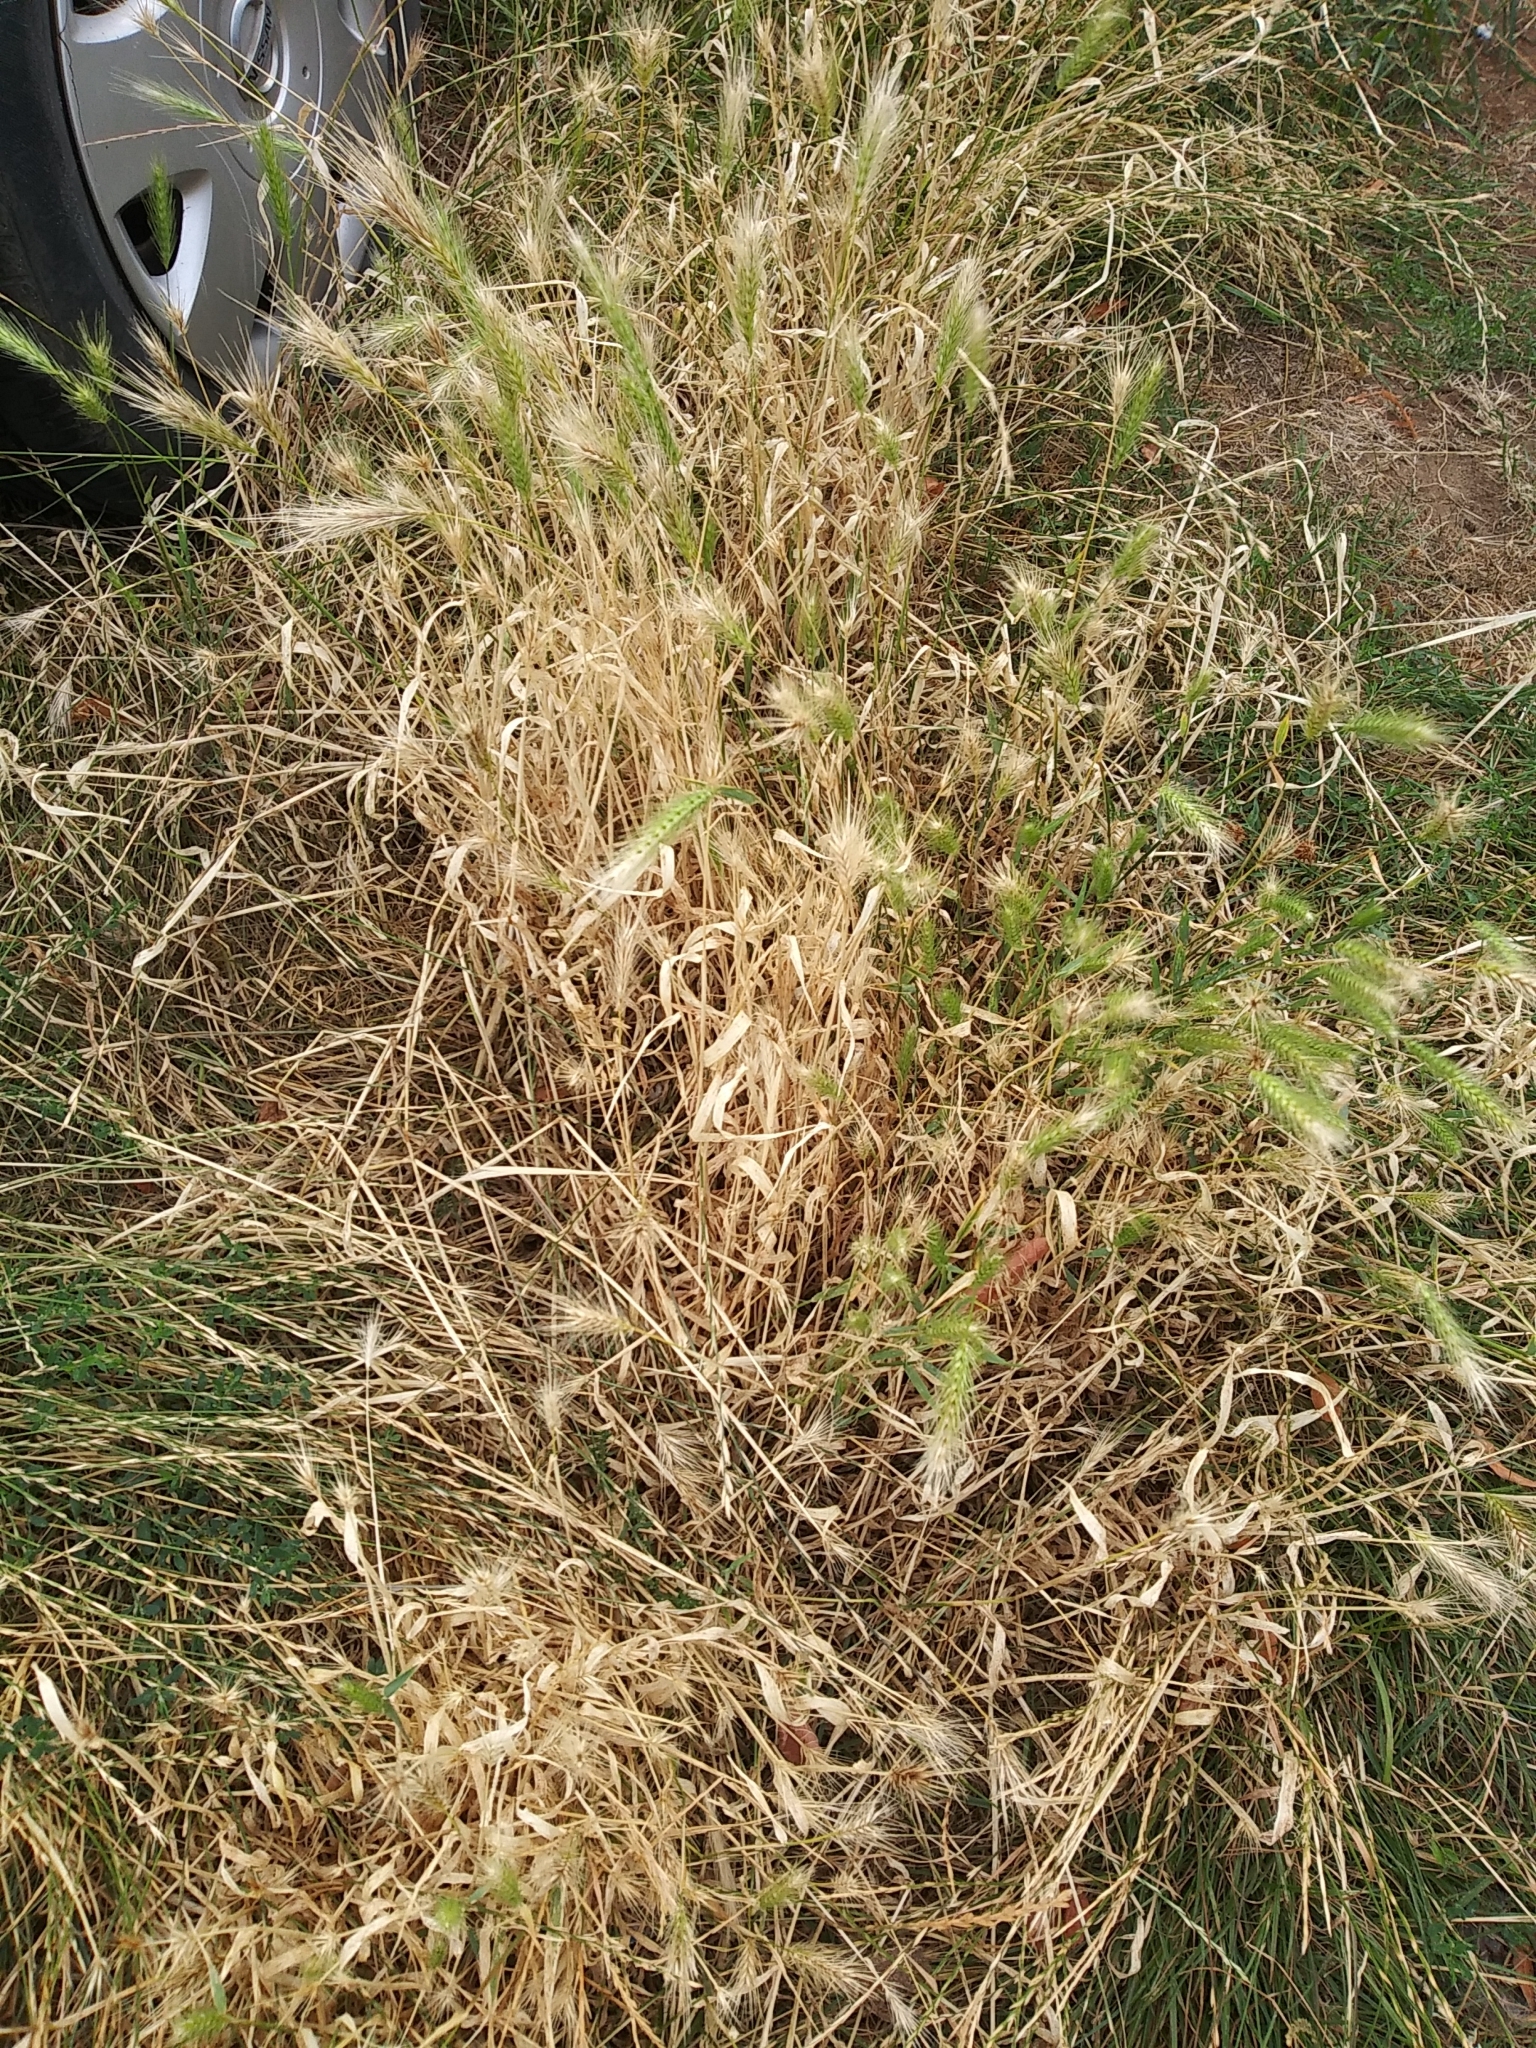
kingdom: Plantae
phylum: Tracheophyta
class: Liliopsida
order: Poales
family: Poaceae
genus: Hordeum
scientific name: Hordeum murinum
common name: Wall barley
